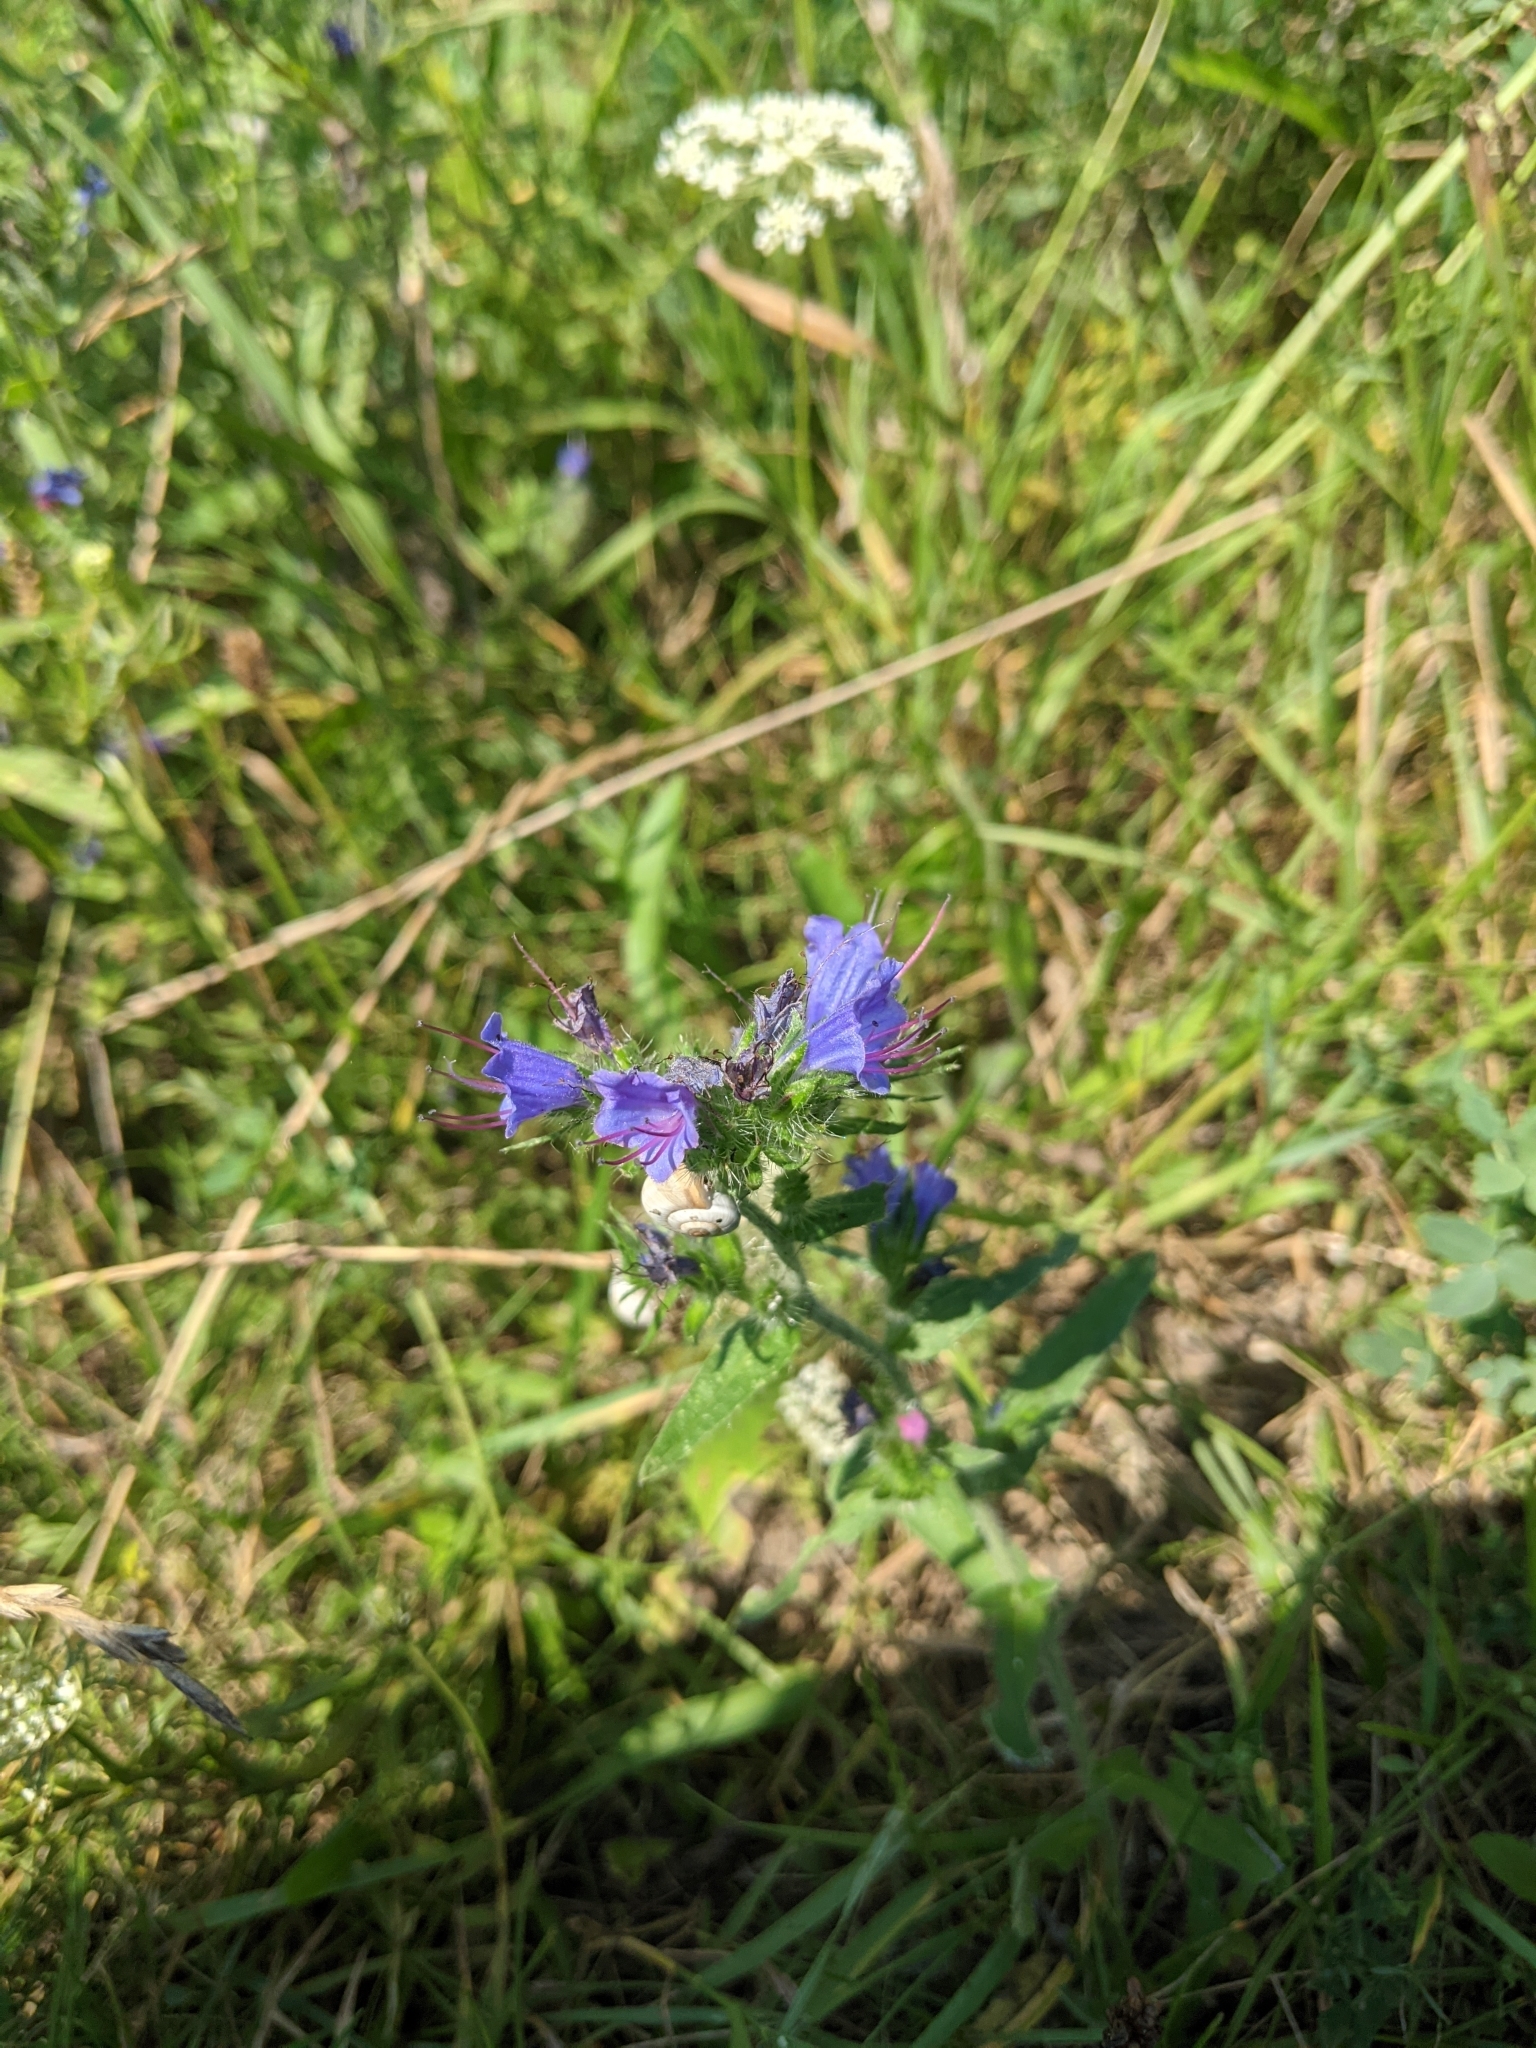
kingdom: Plantae
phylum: Tracheophyta
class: Magnoliopsida
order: Boraginales
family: Boraginaceae
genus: Echium
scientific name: Echium vulgare
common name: Common viper's bugloss
